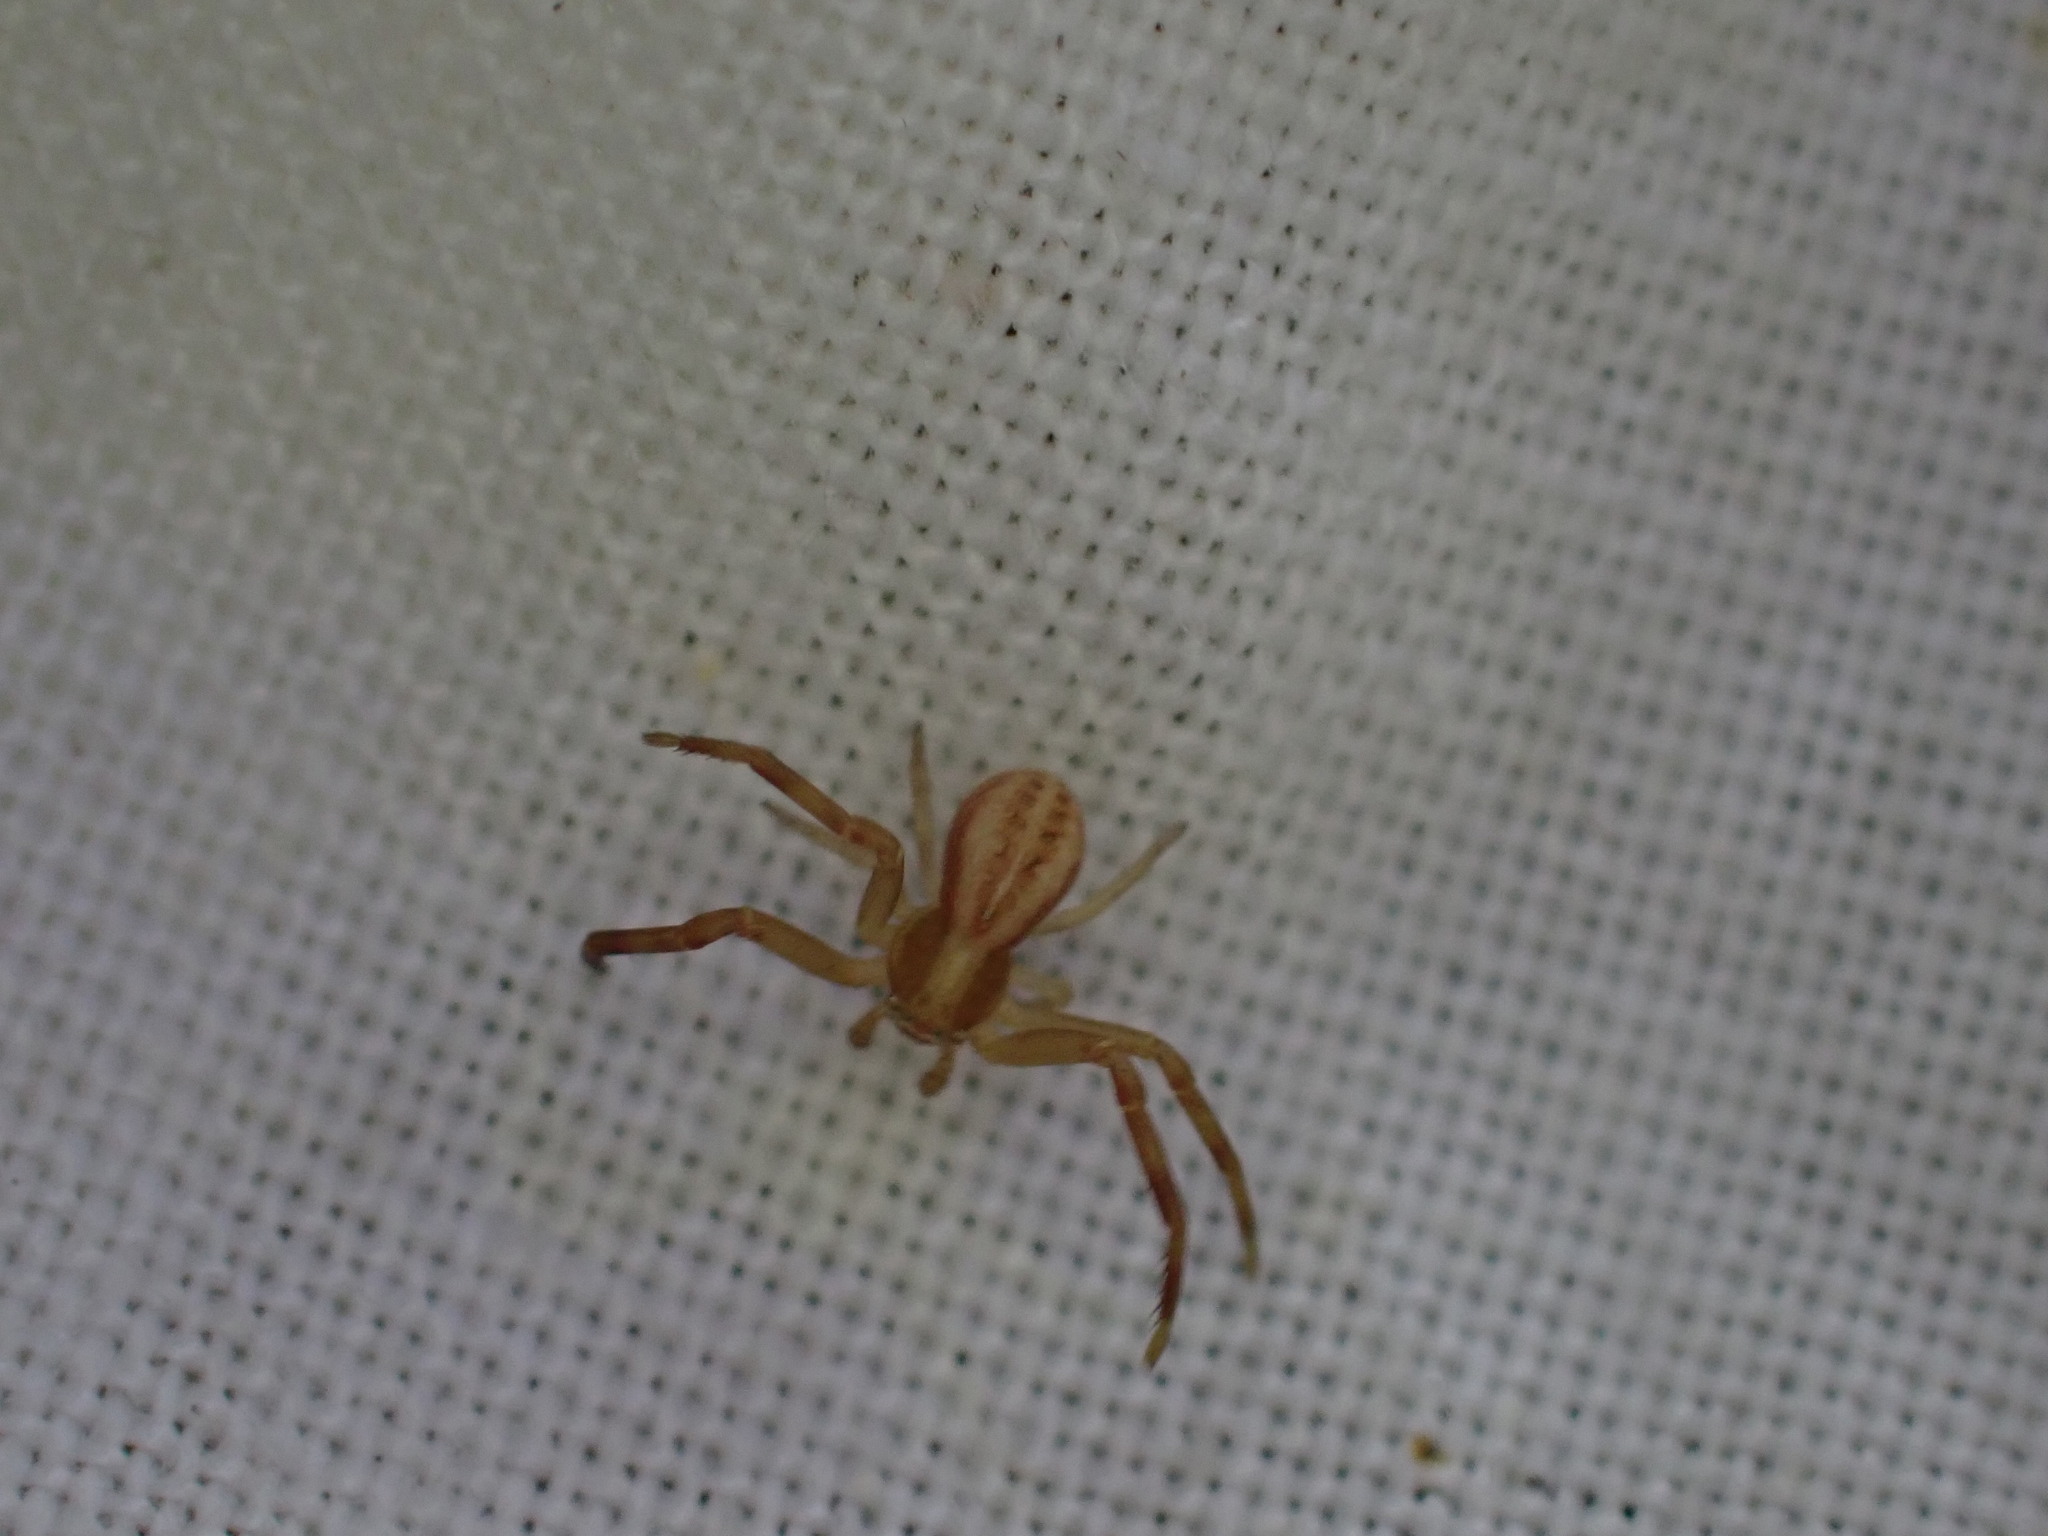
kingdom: Animalia
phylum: Arthropoda
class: Arachnida
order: Araneae
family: Thomisidae
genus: Runcinia
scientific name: Runcinia grammica
